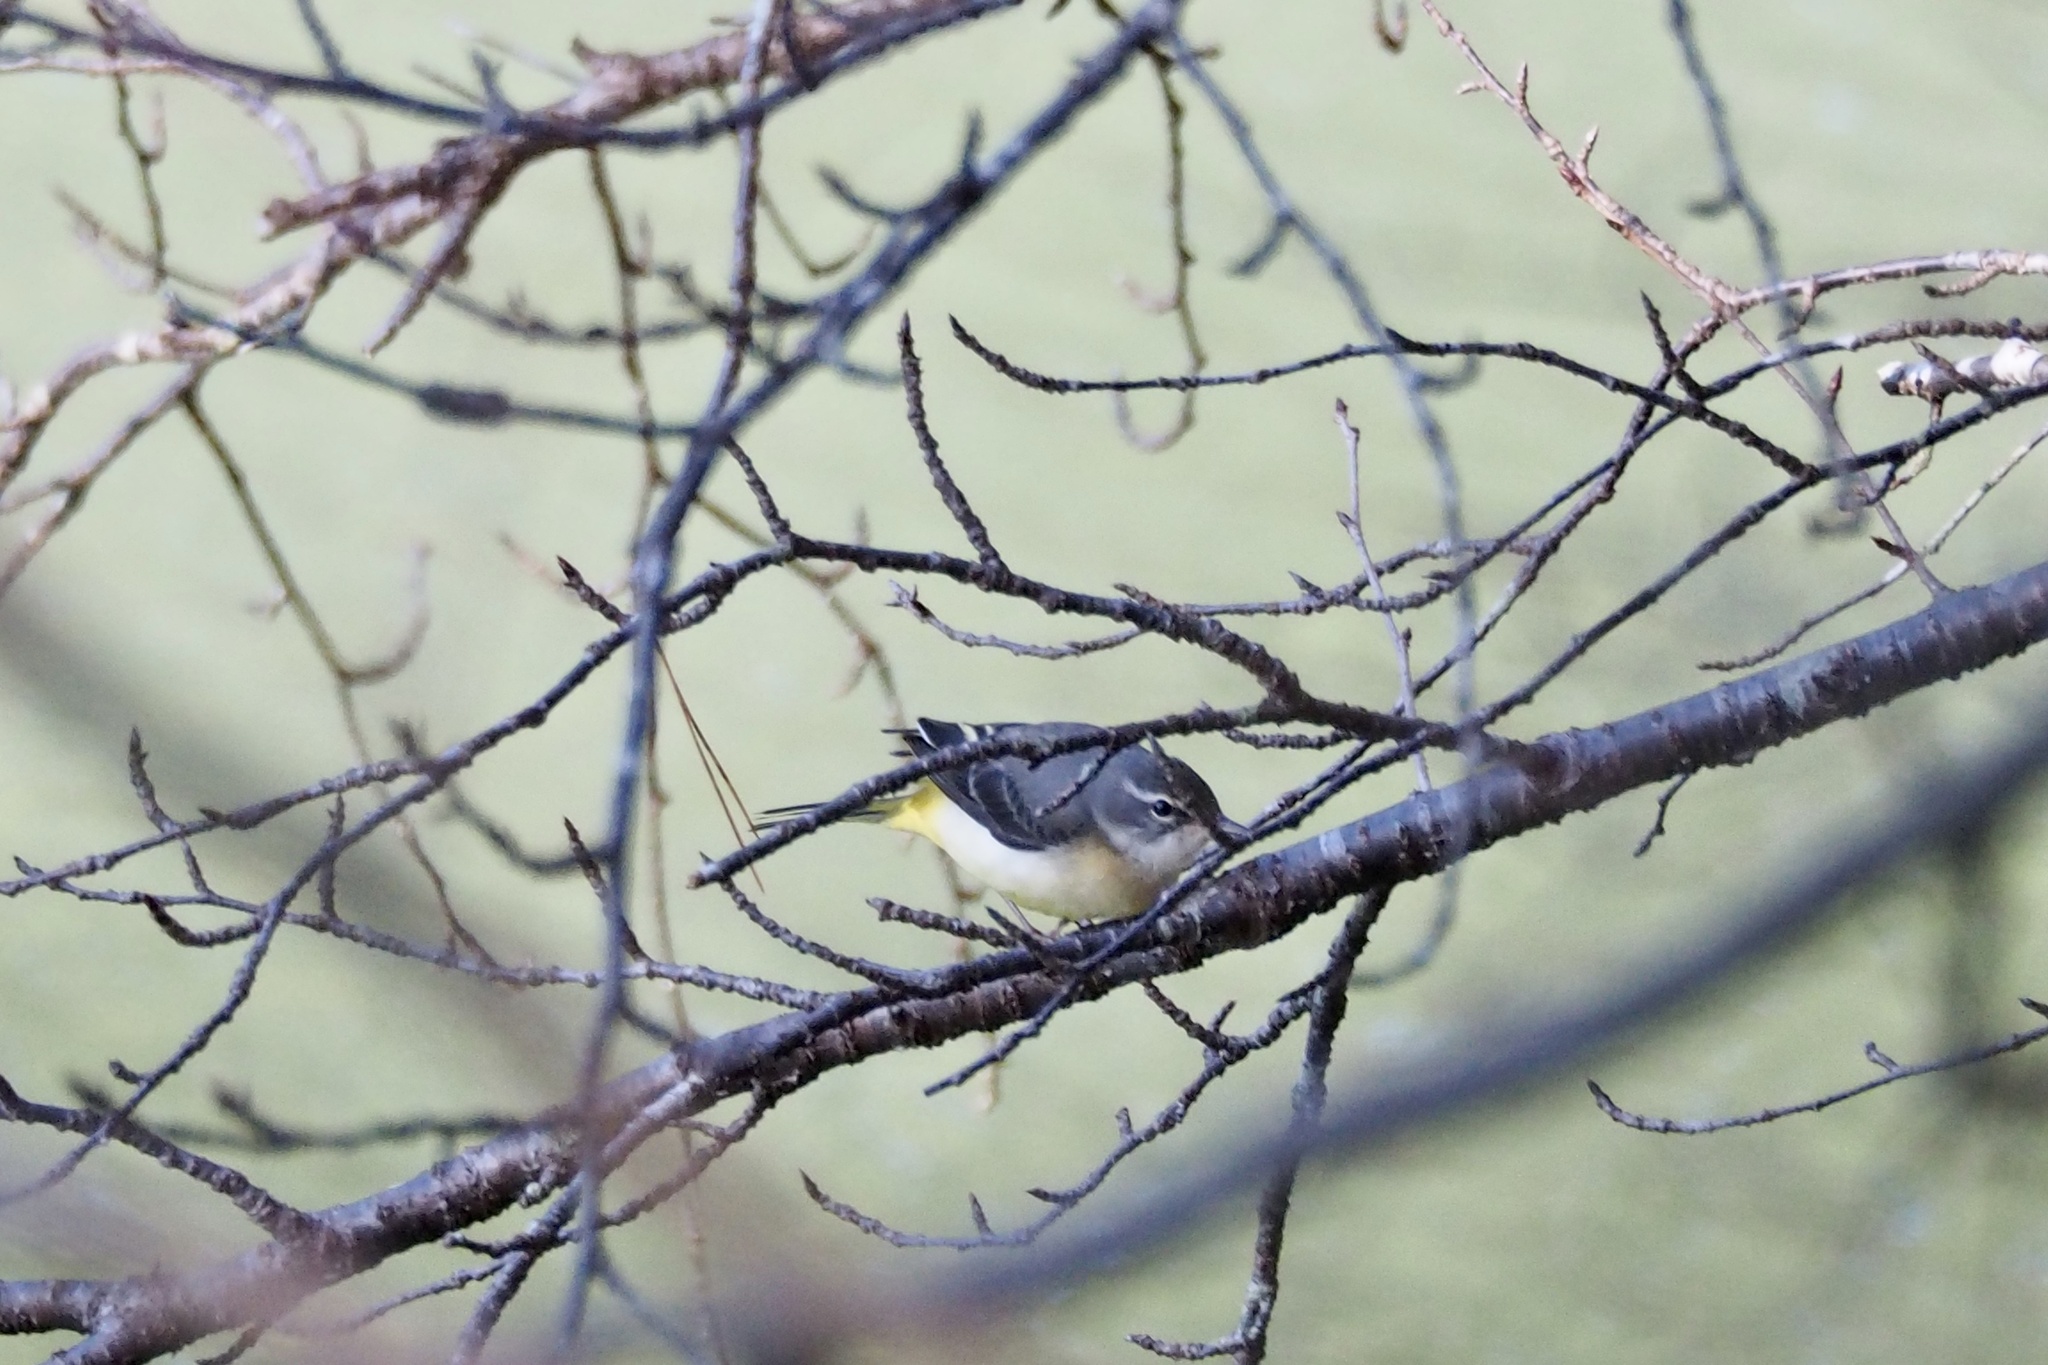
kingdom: Animalia
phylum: Chordata
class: Aves
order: Passeriformes
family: Motacillidae
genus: Motacilla
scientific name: Motacilla cinerea
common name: Grey wagtail
